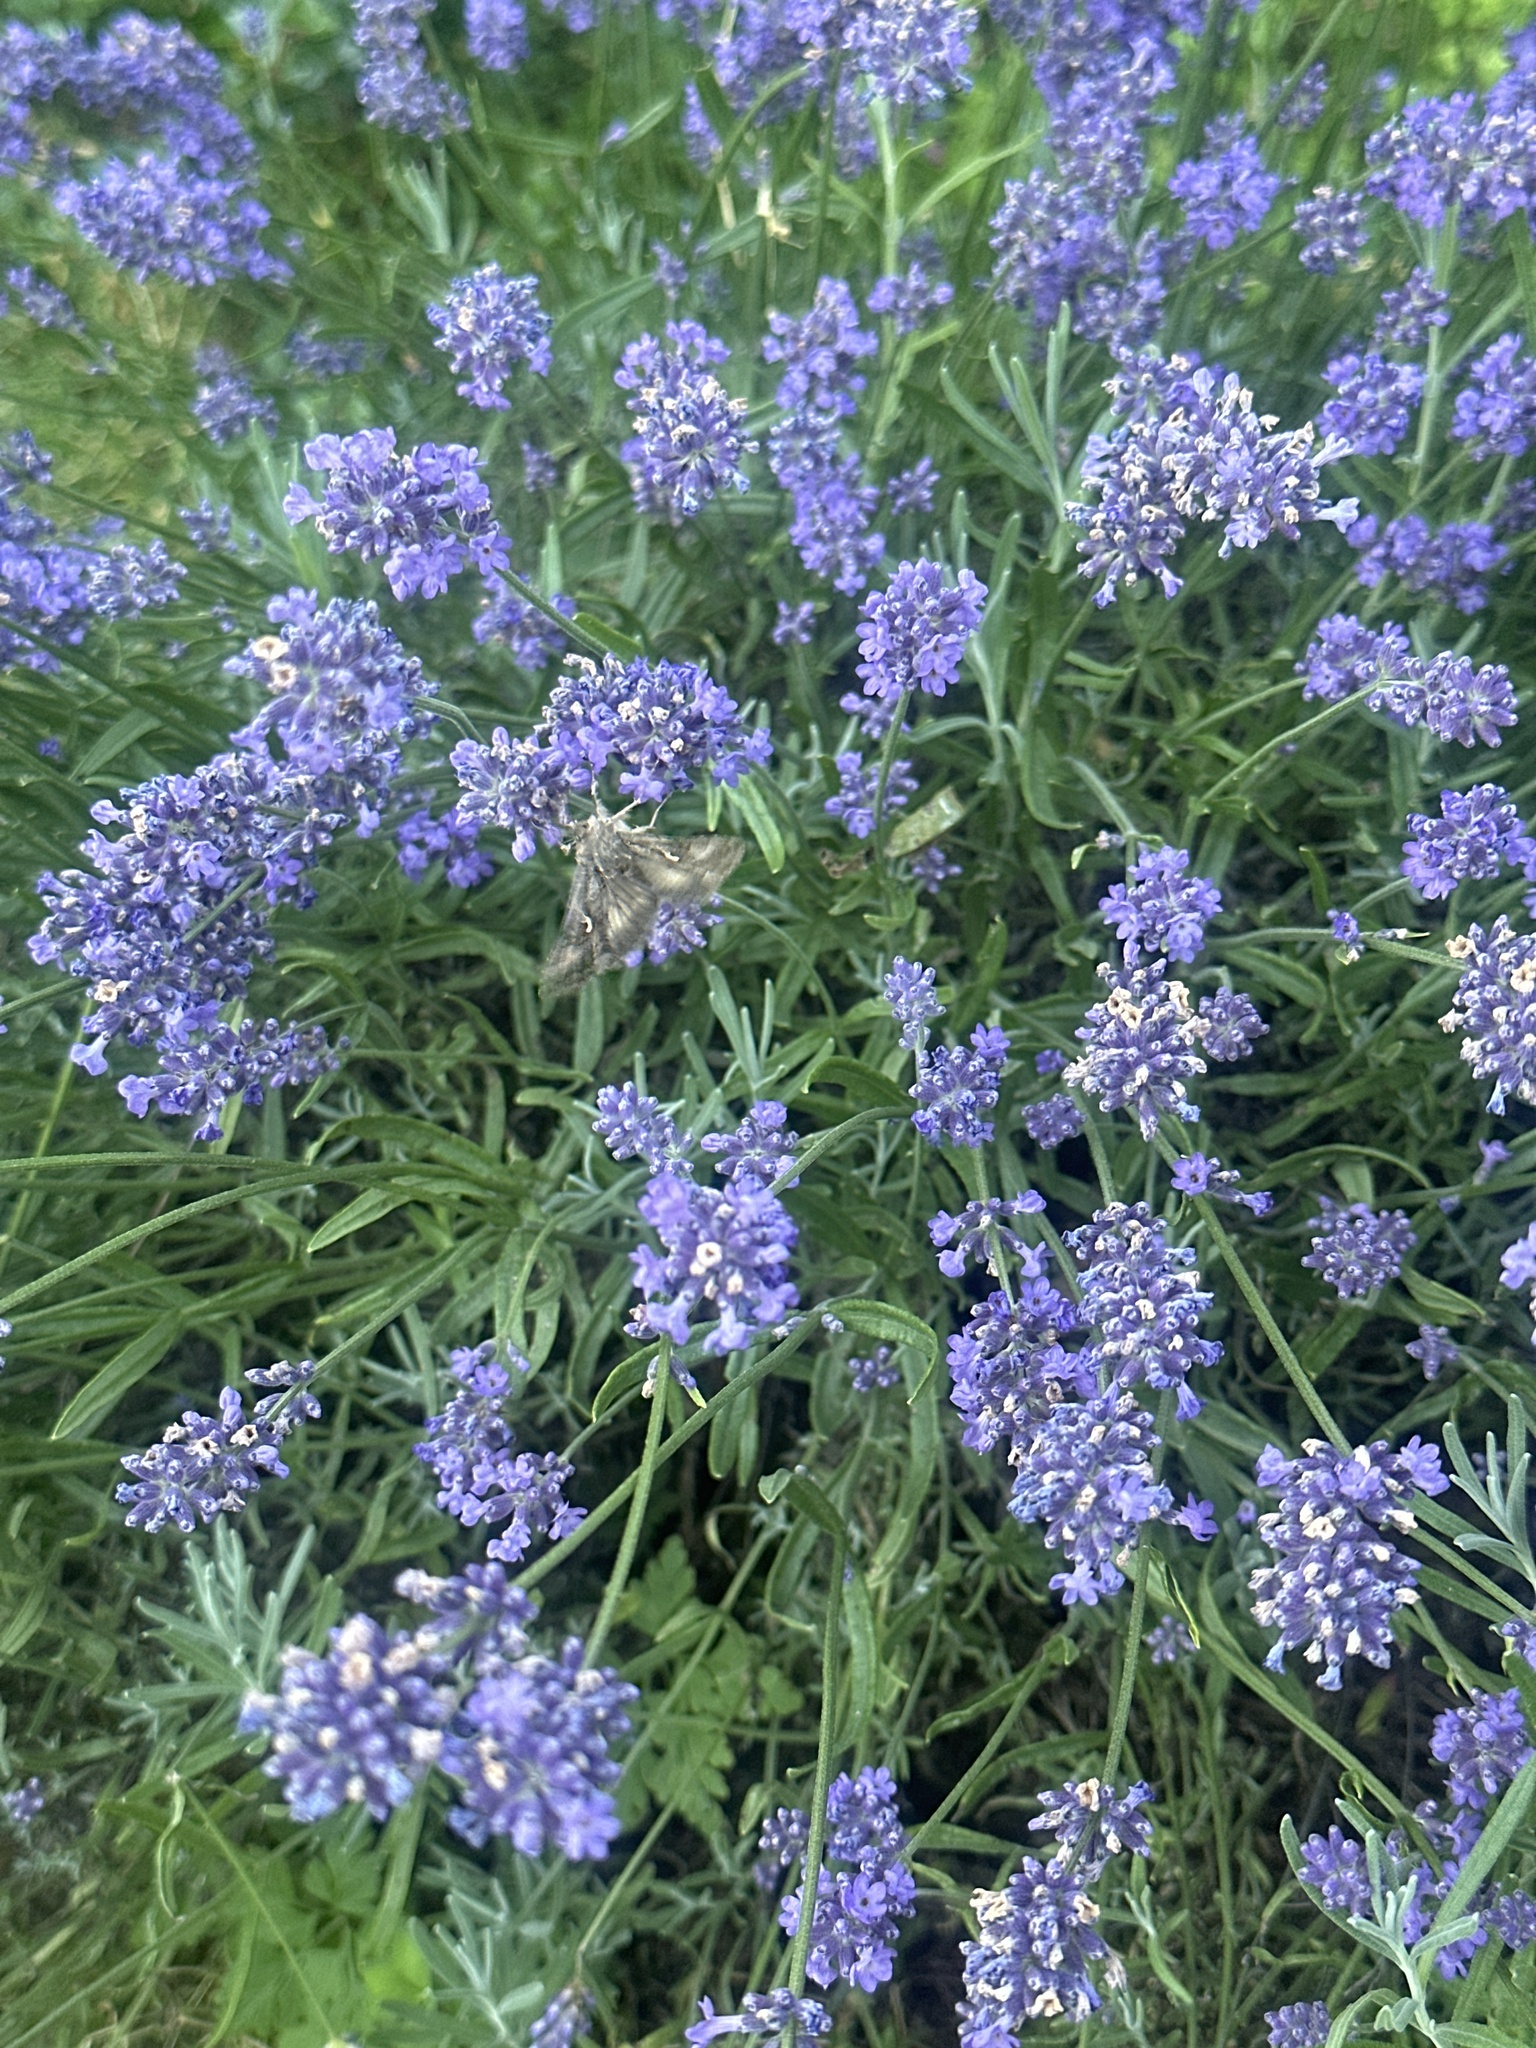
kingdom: Animalia
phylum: Arthropoda
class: Insecta
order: Lepidoptera
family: Noctuidae
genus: Autographa
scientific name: Autographa gamma
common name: Silver y
